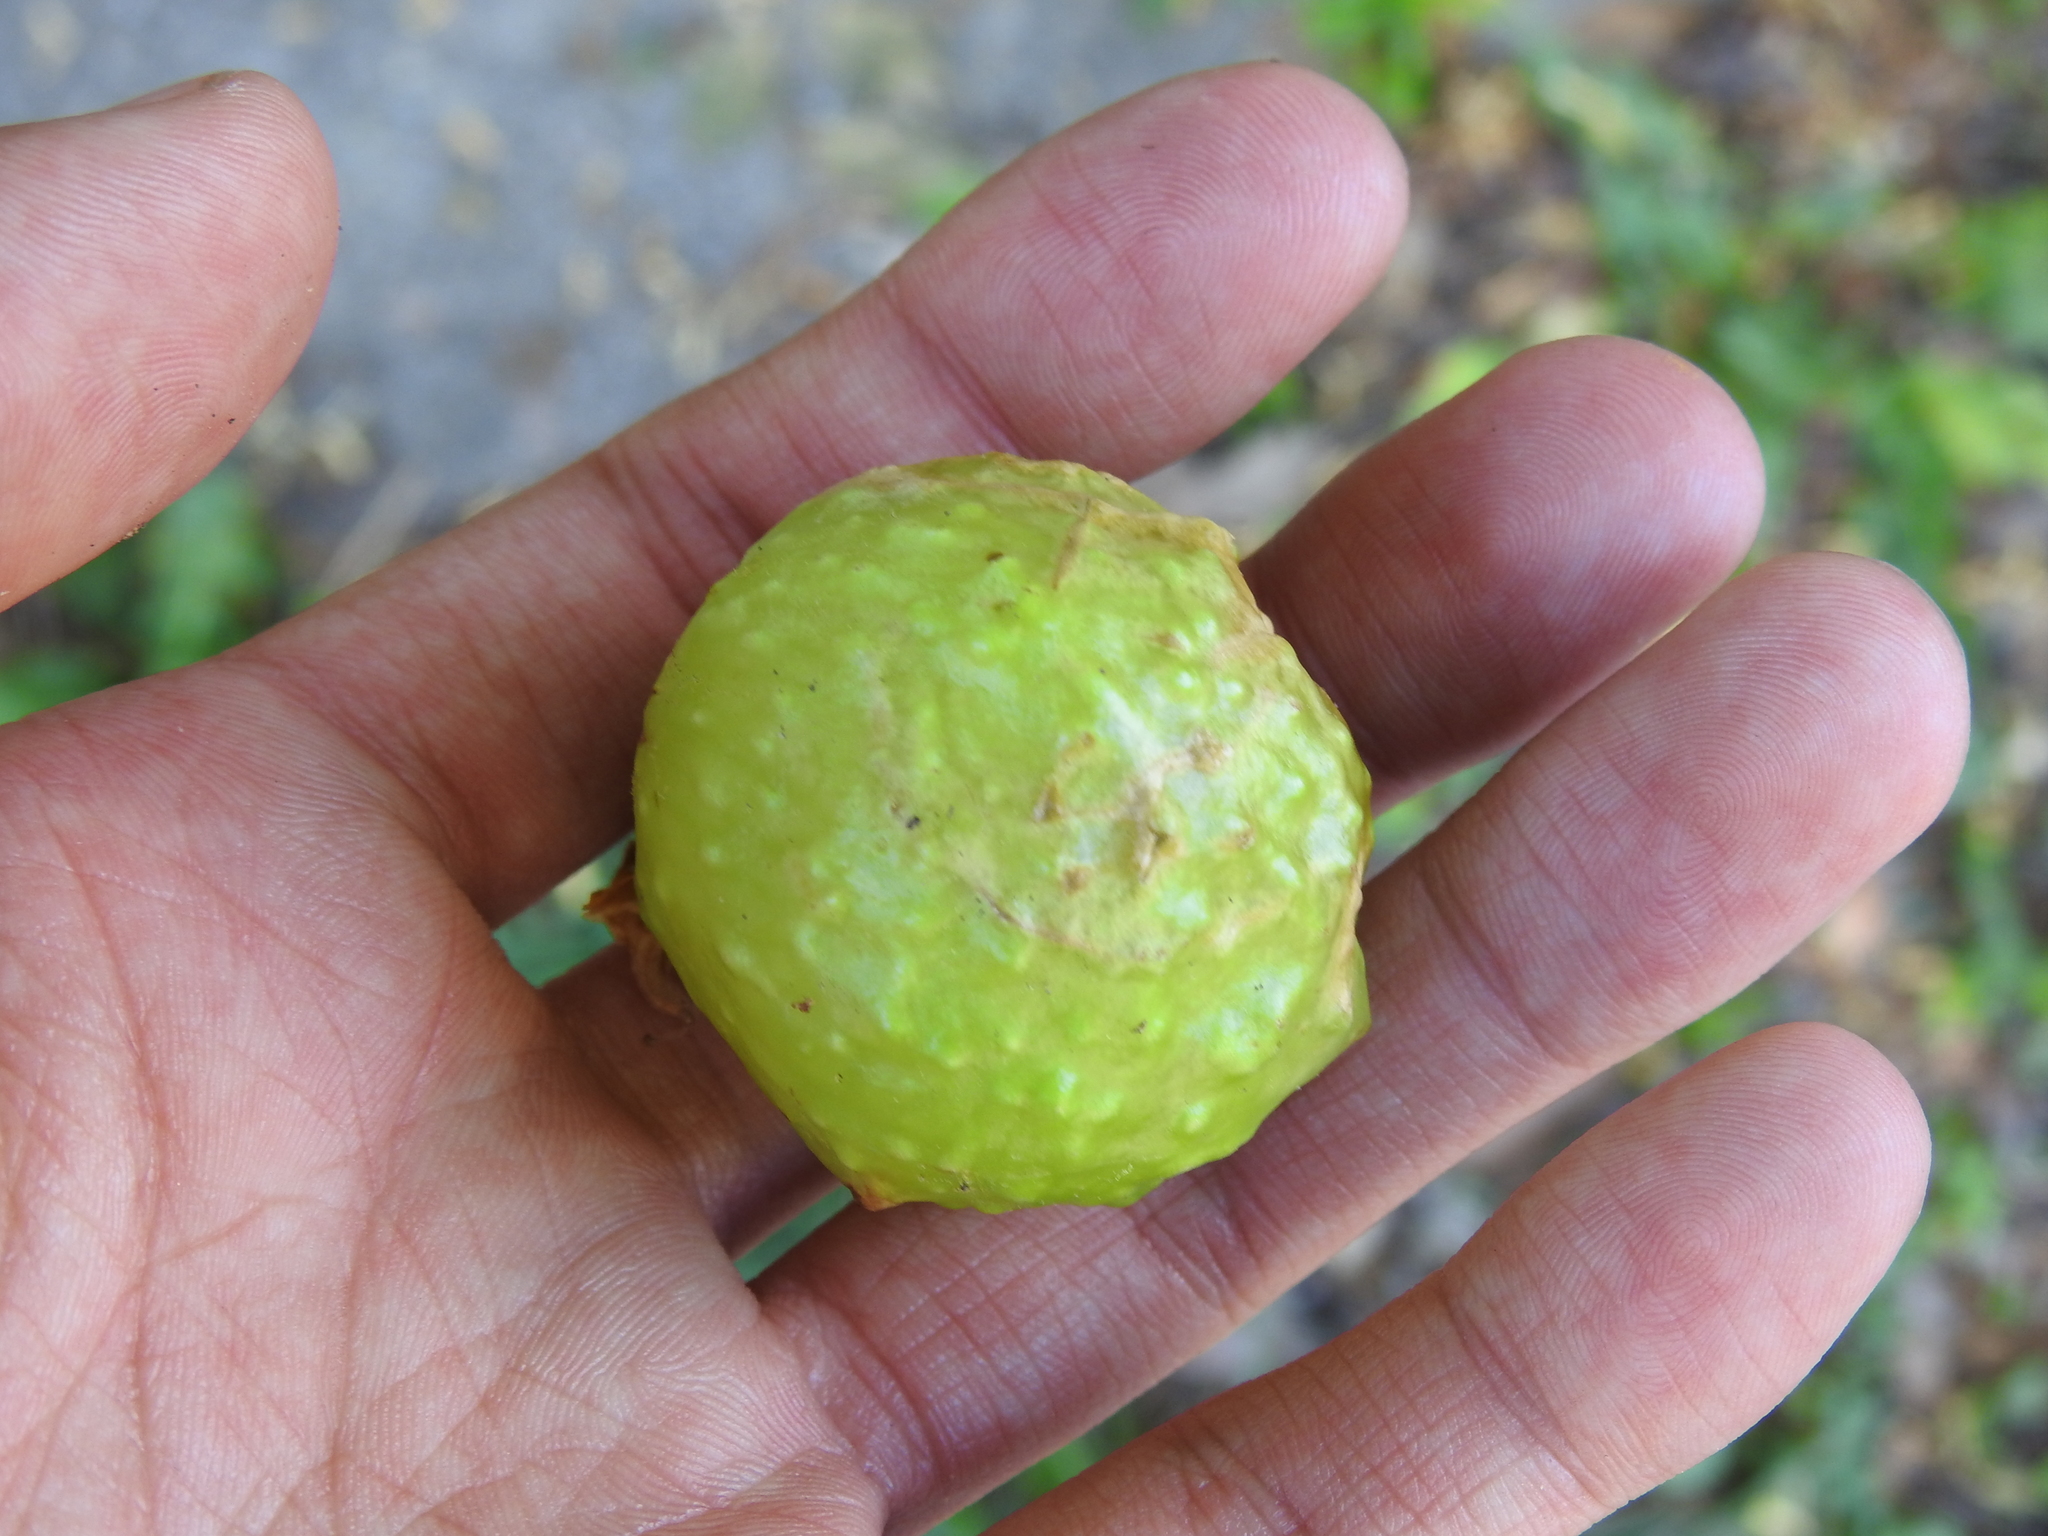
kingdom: Animalia
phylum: Arthropoda
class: Insecta
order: Hymenoptera
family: Cynipidae
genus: Amphibolips
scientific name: Amphibolips
